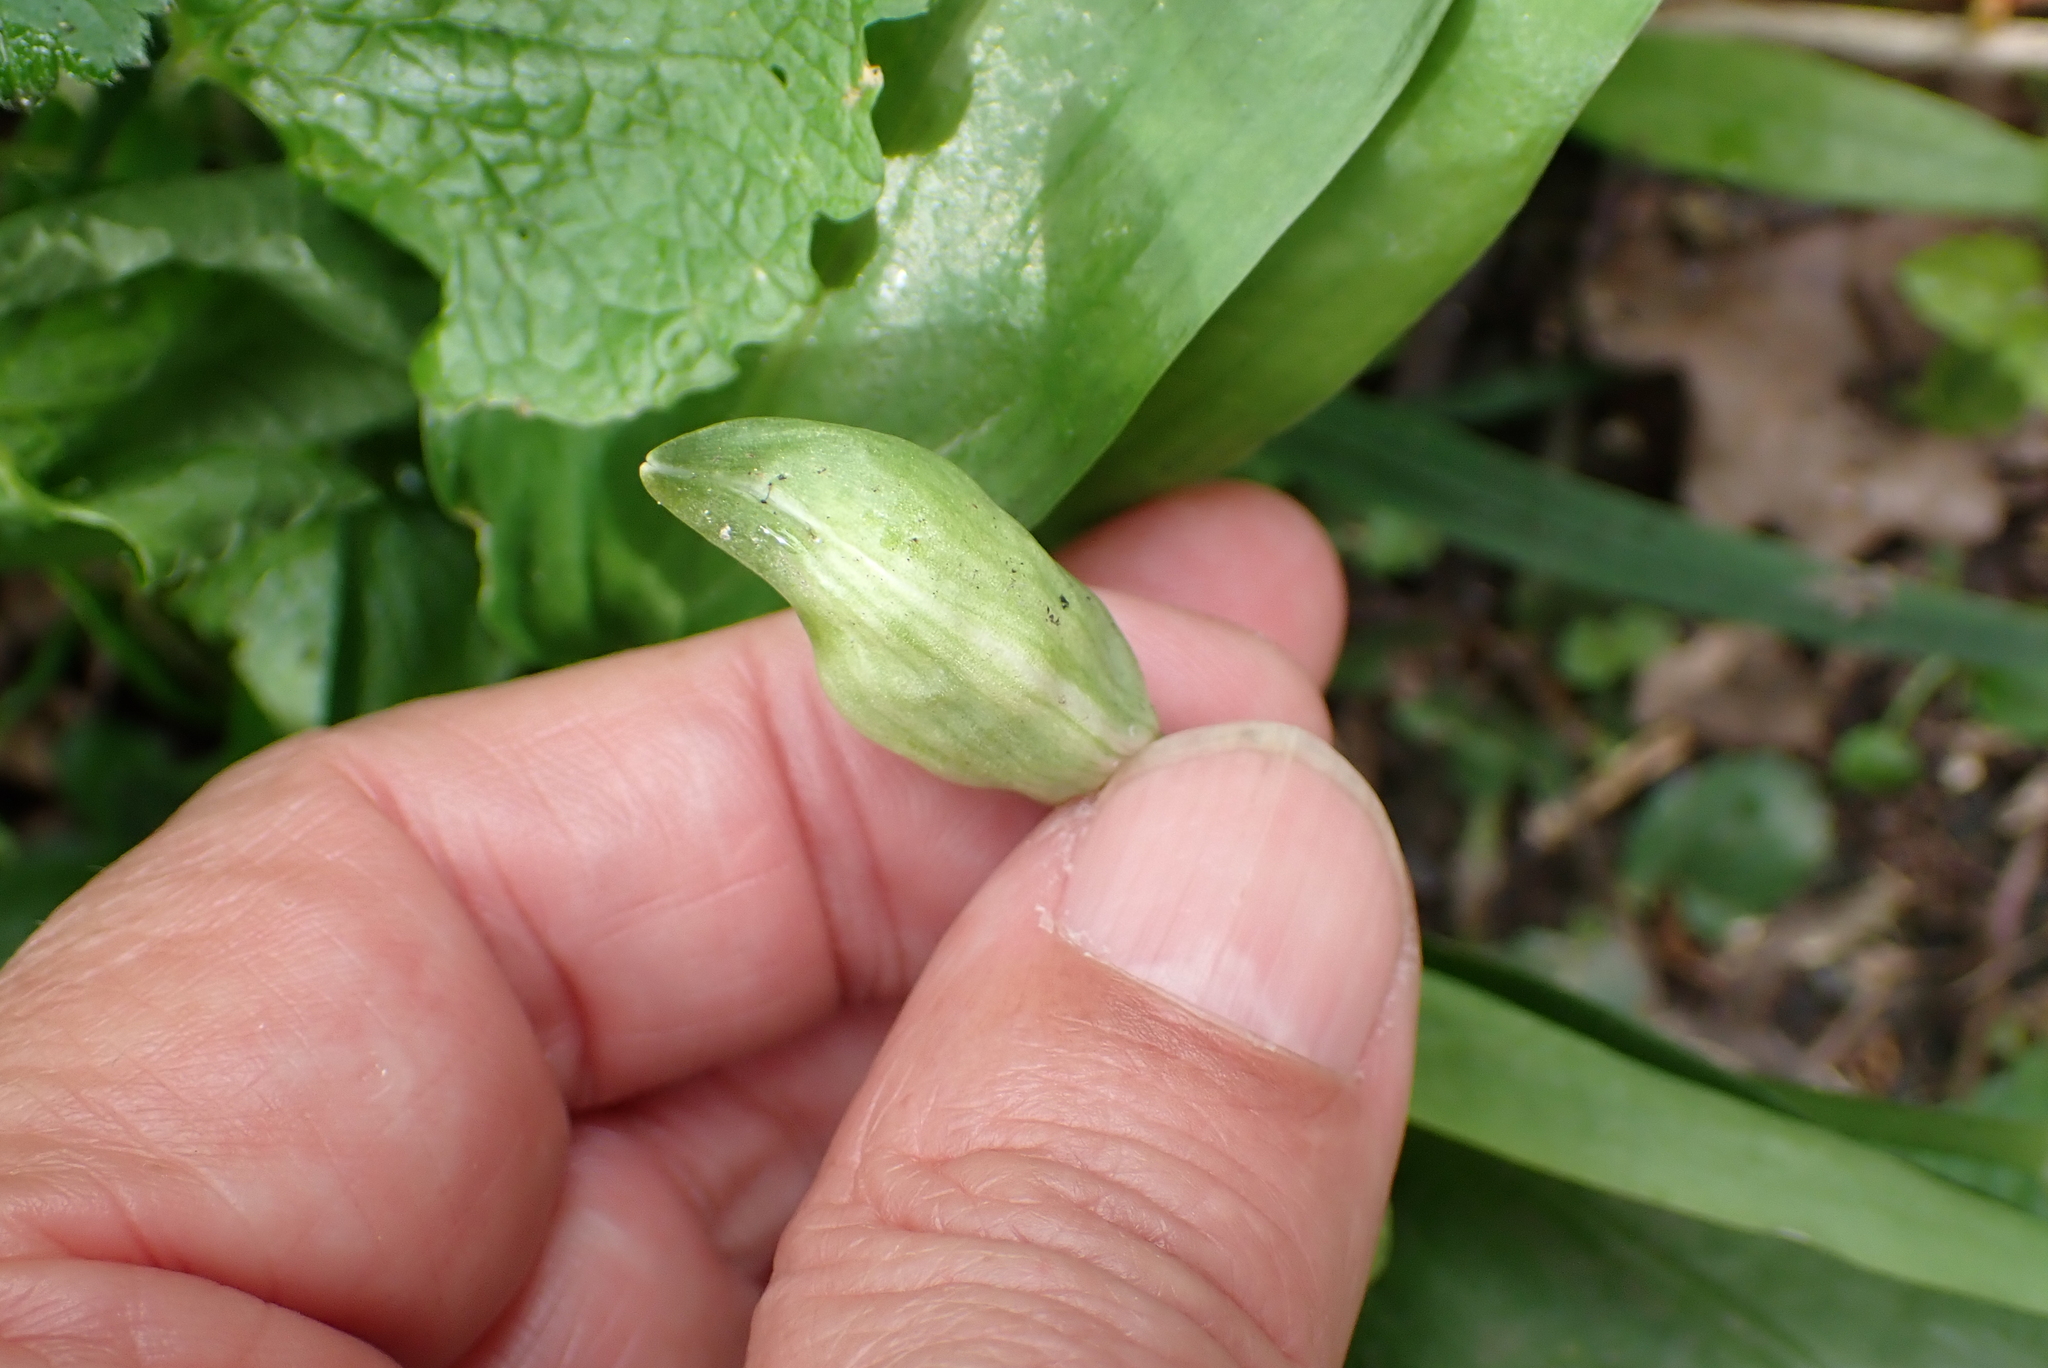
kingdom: Plantae
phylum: Tracheophyta
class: Liliopsida
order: Asparagales
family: Amaryllidaceae
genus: Allium
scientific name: Allium ursinum
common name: Ramsons
